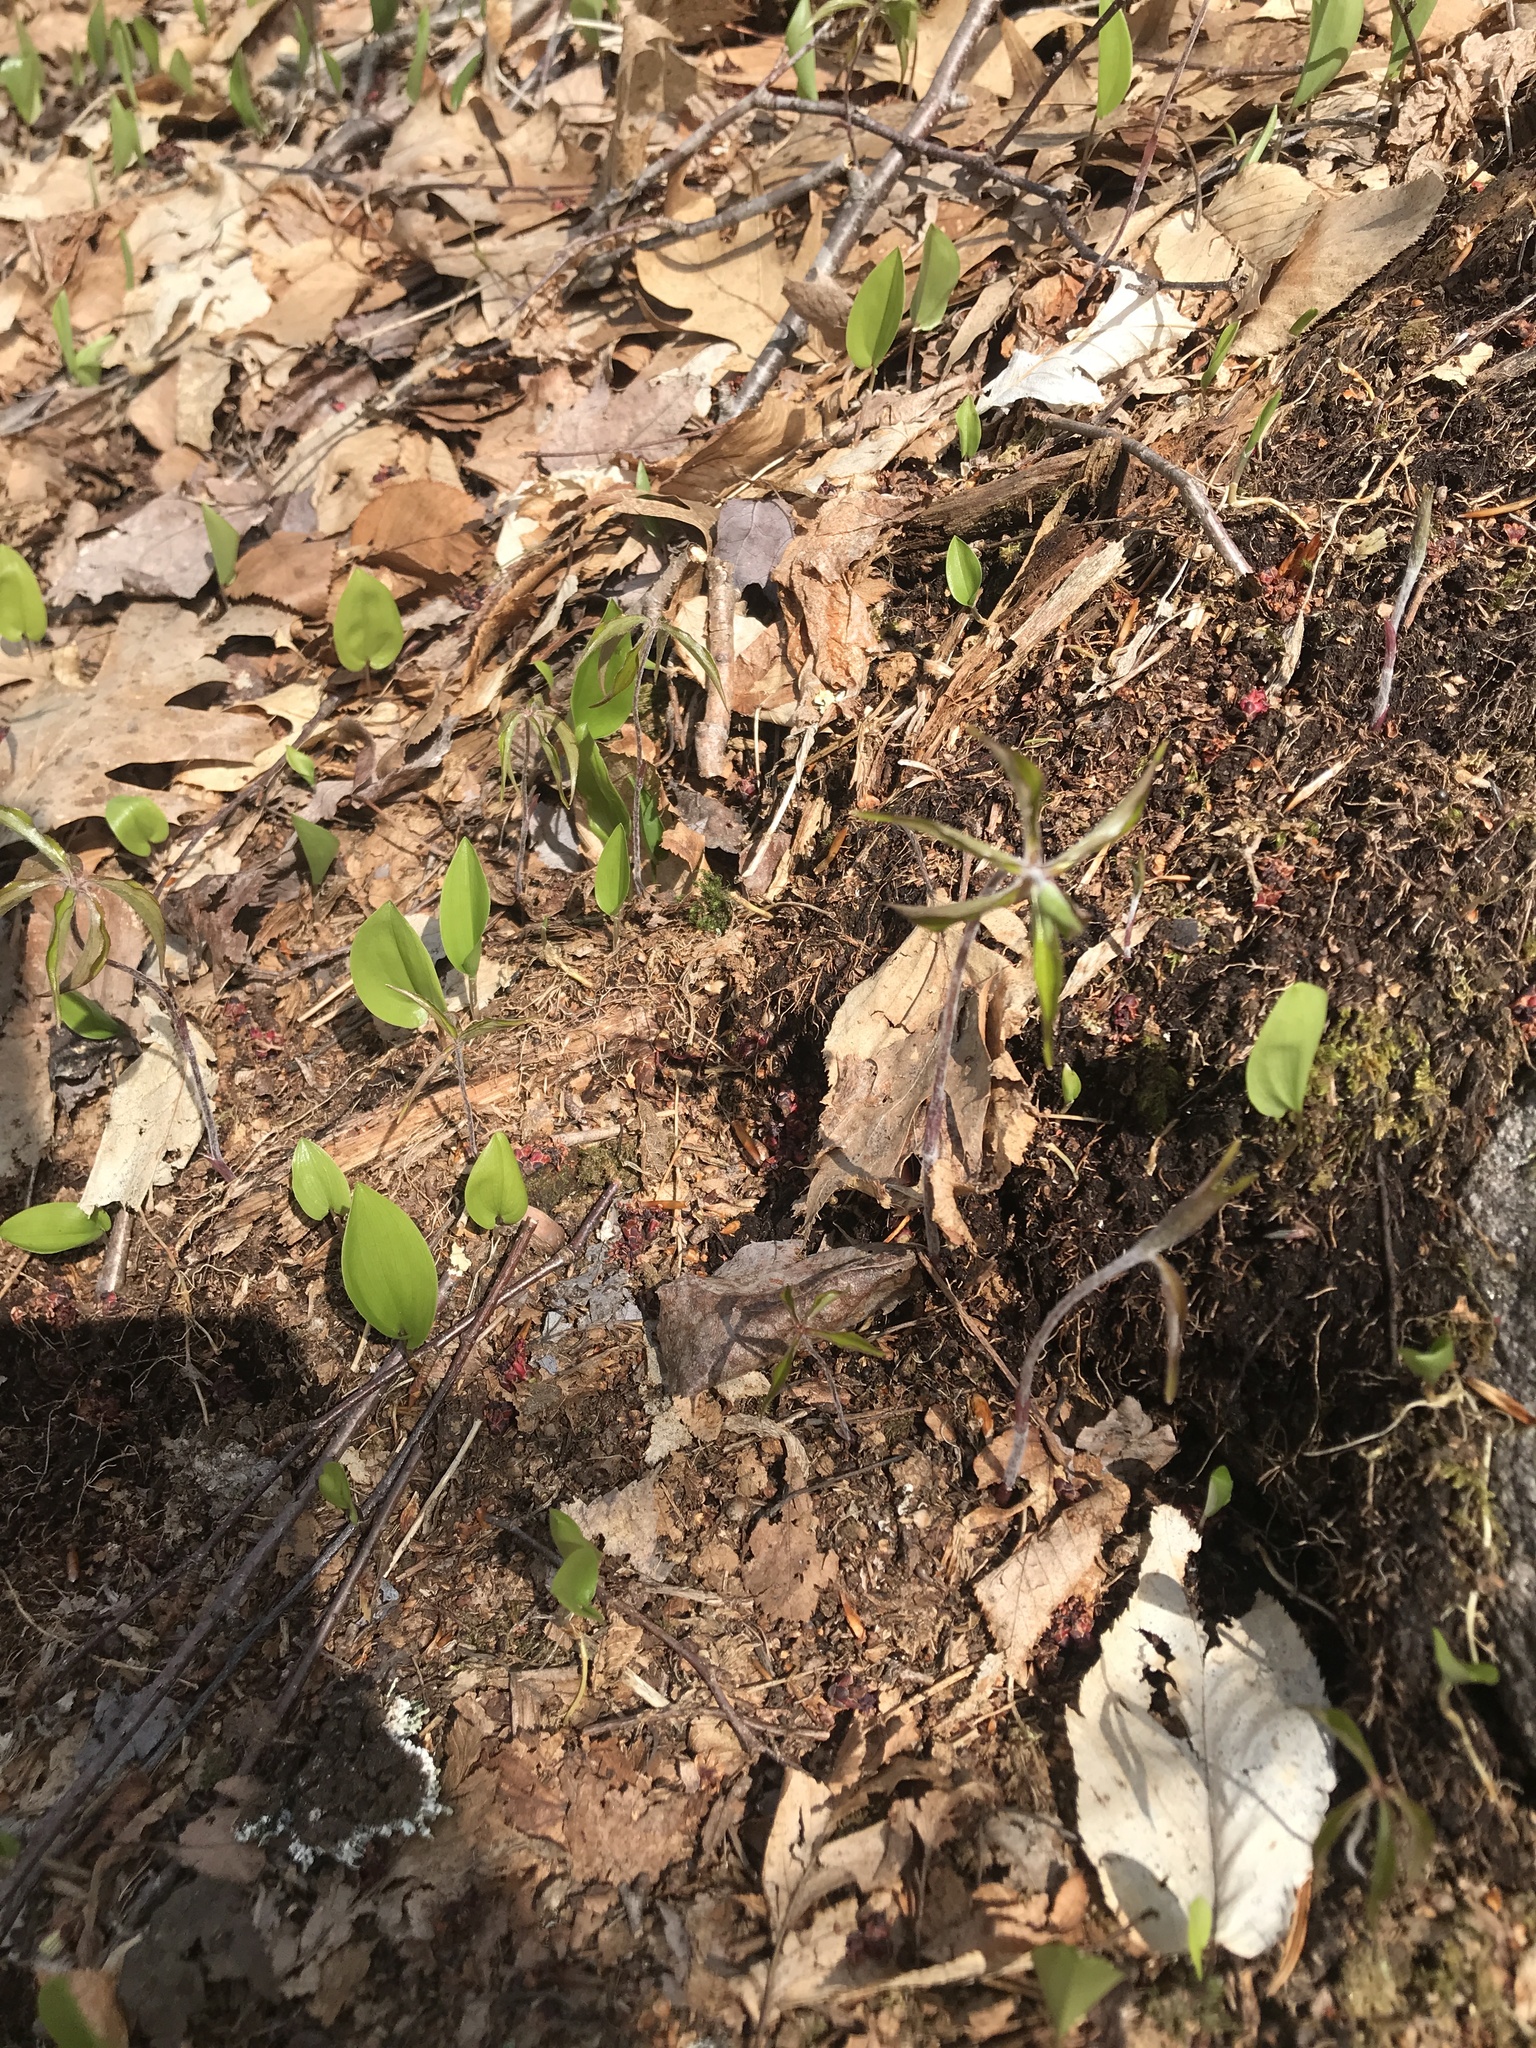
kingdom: Plantae
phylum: Tracheophyta
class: Magnoliopsida
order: Ericales
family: Primulaceae
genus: Lysimachia
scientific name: Lysimachia borealis
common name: American starflower
